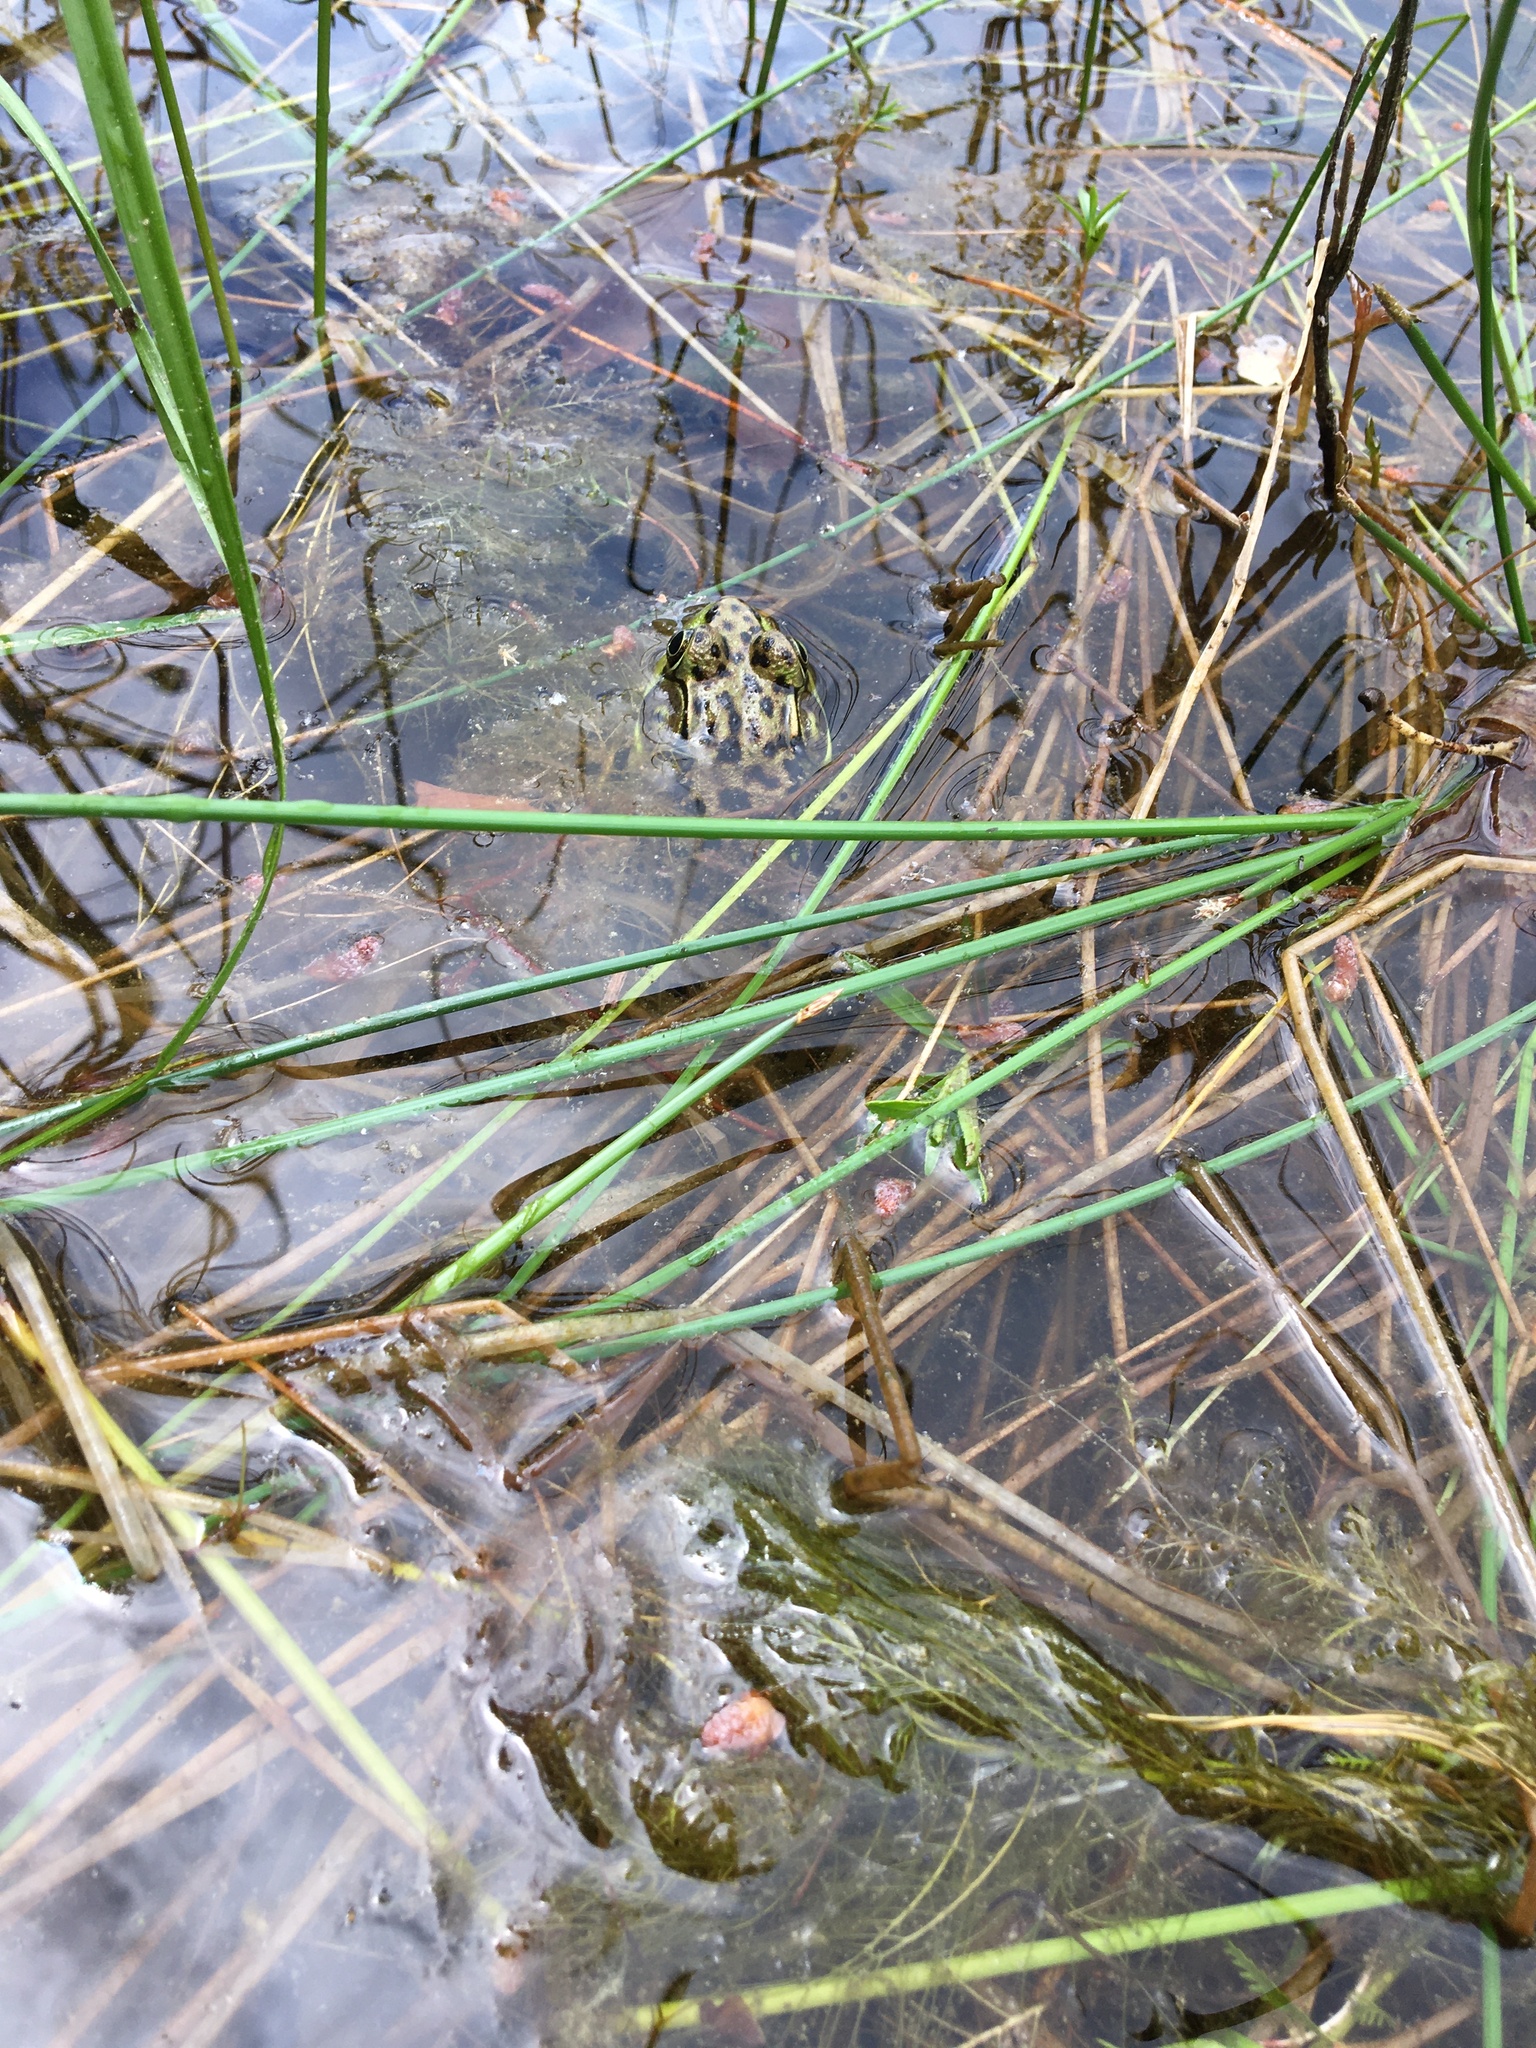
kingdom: Animalia
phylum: Chordata
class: Amphibia
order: Anura
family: Ranidae
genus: Lithobates
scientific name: Lithobates clamitans
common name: Green frog
